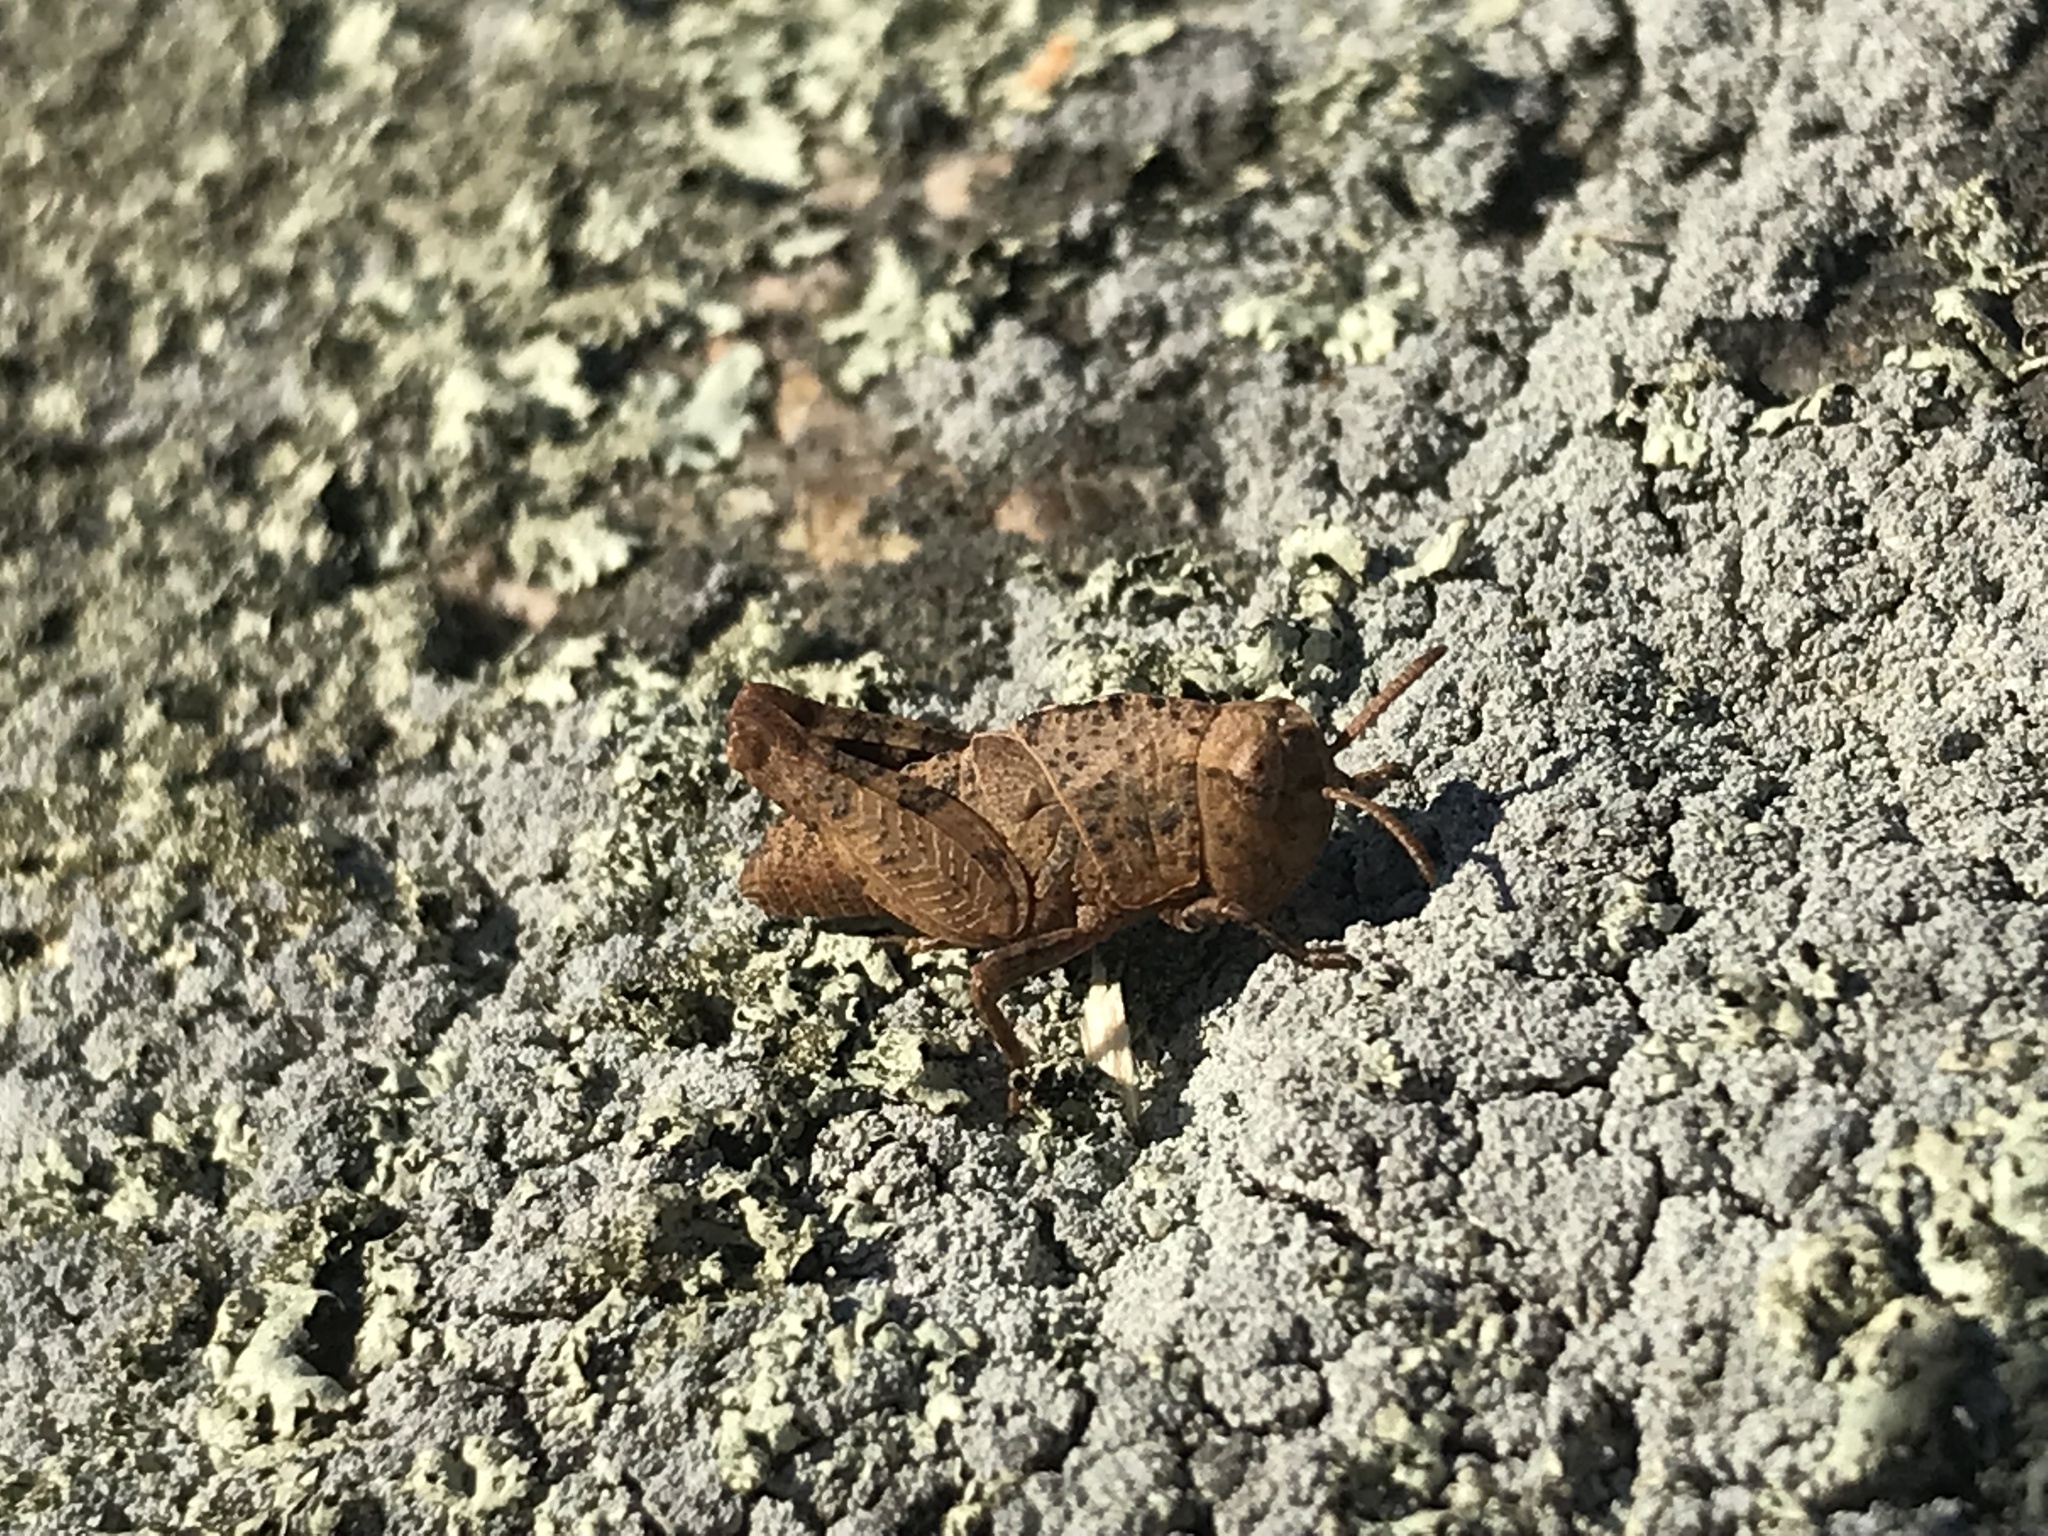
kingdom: Animalia
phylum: Arthropoda
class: Insecta
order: Orthoptera
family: Acrididae
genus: Arphia
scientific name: Arphia sulphurea
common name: Spring yellow-winged locust
